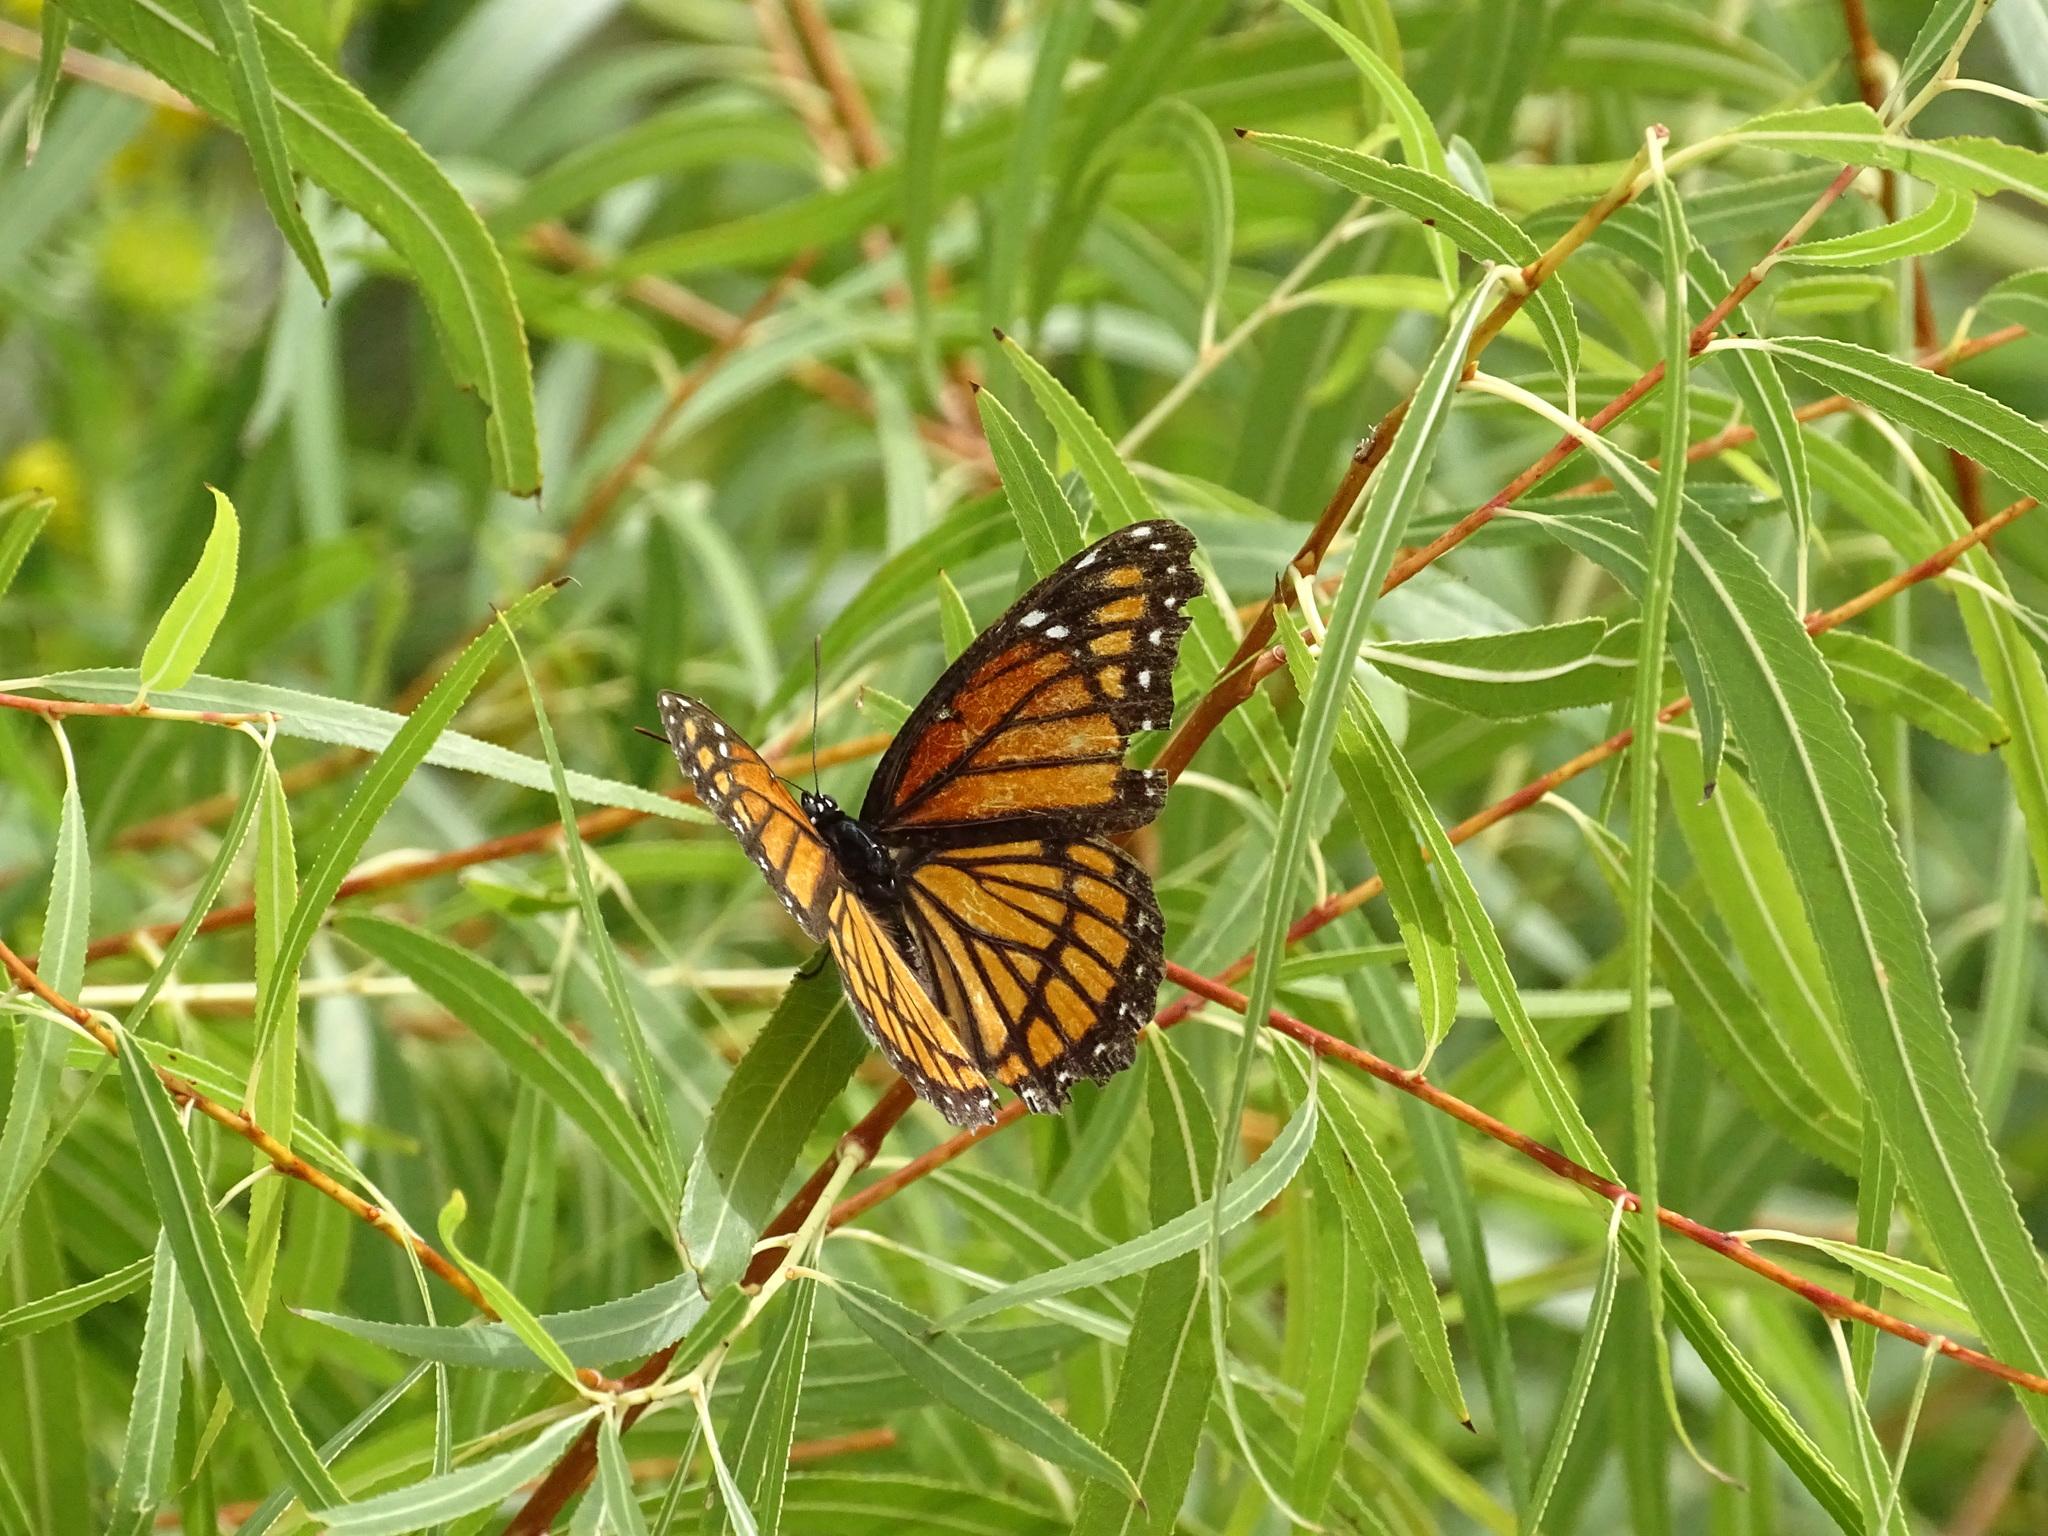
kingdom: Animalia
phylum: Arthropoda
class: Insecta
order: Lepidoptera
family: Nymphalidae
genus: Limenitis
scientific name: Limenitis archippus
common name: Viceroy
